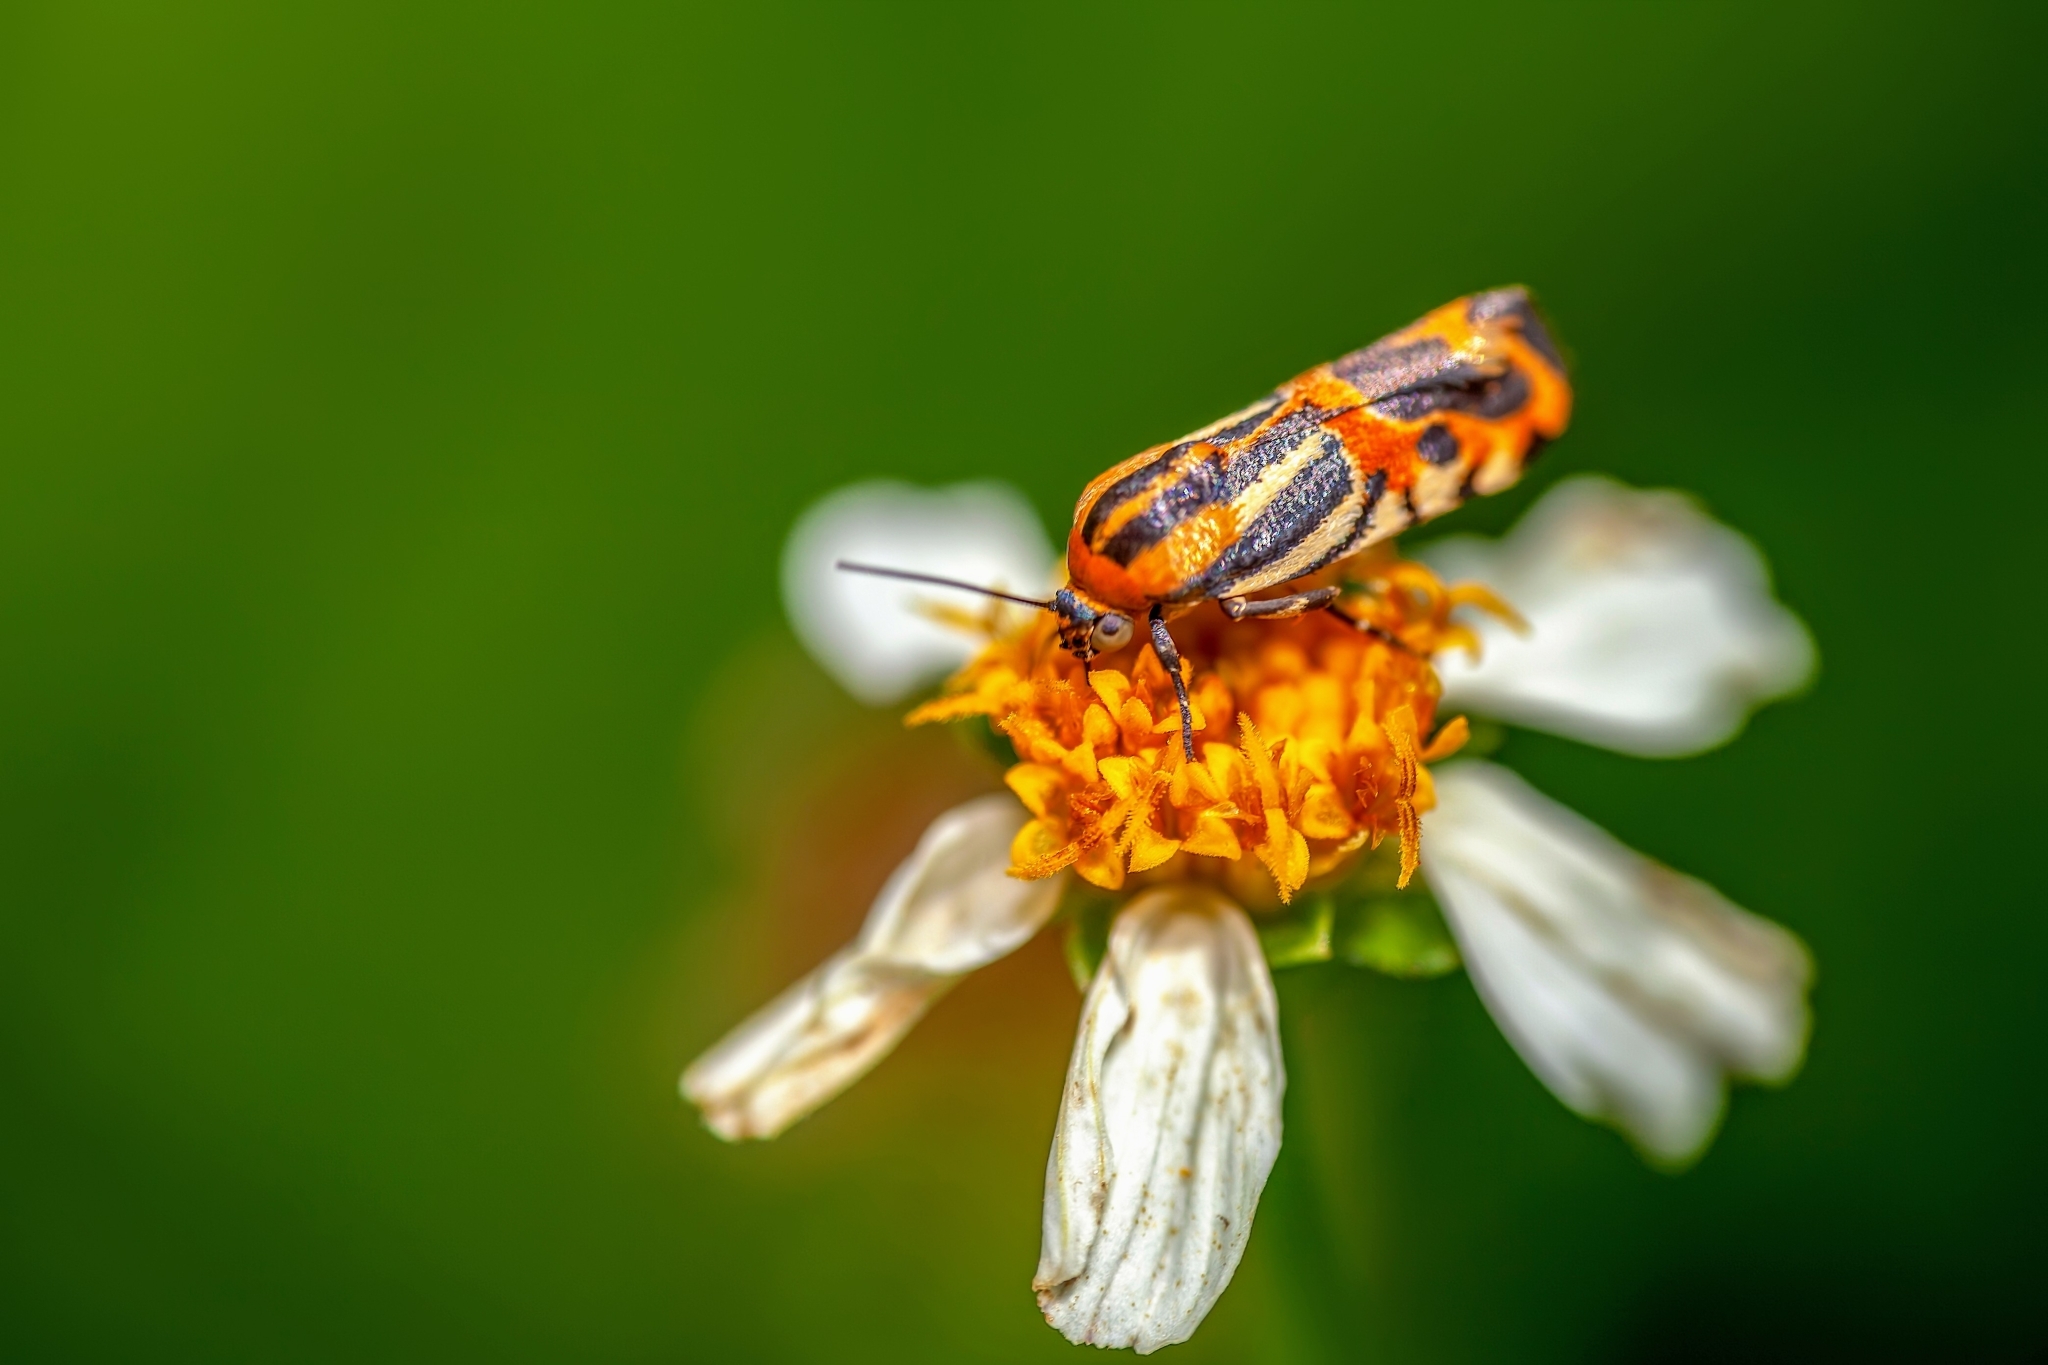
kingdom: Animalia
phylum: Arthropoda
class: Insecta
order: Lepidoptera
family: Noctuidae
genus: Acontia
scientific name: Acontia onagrus
